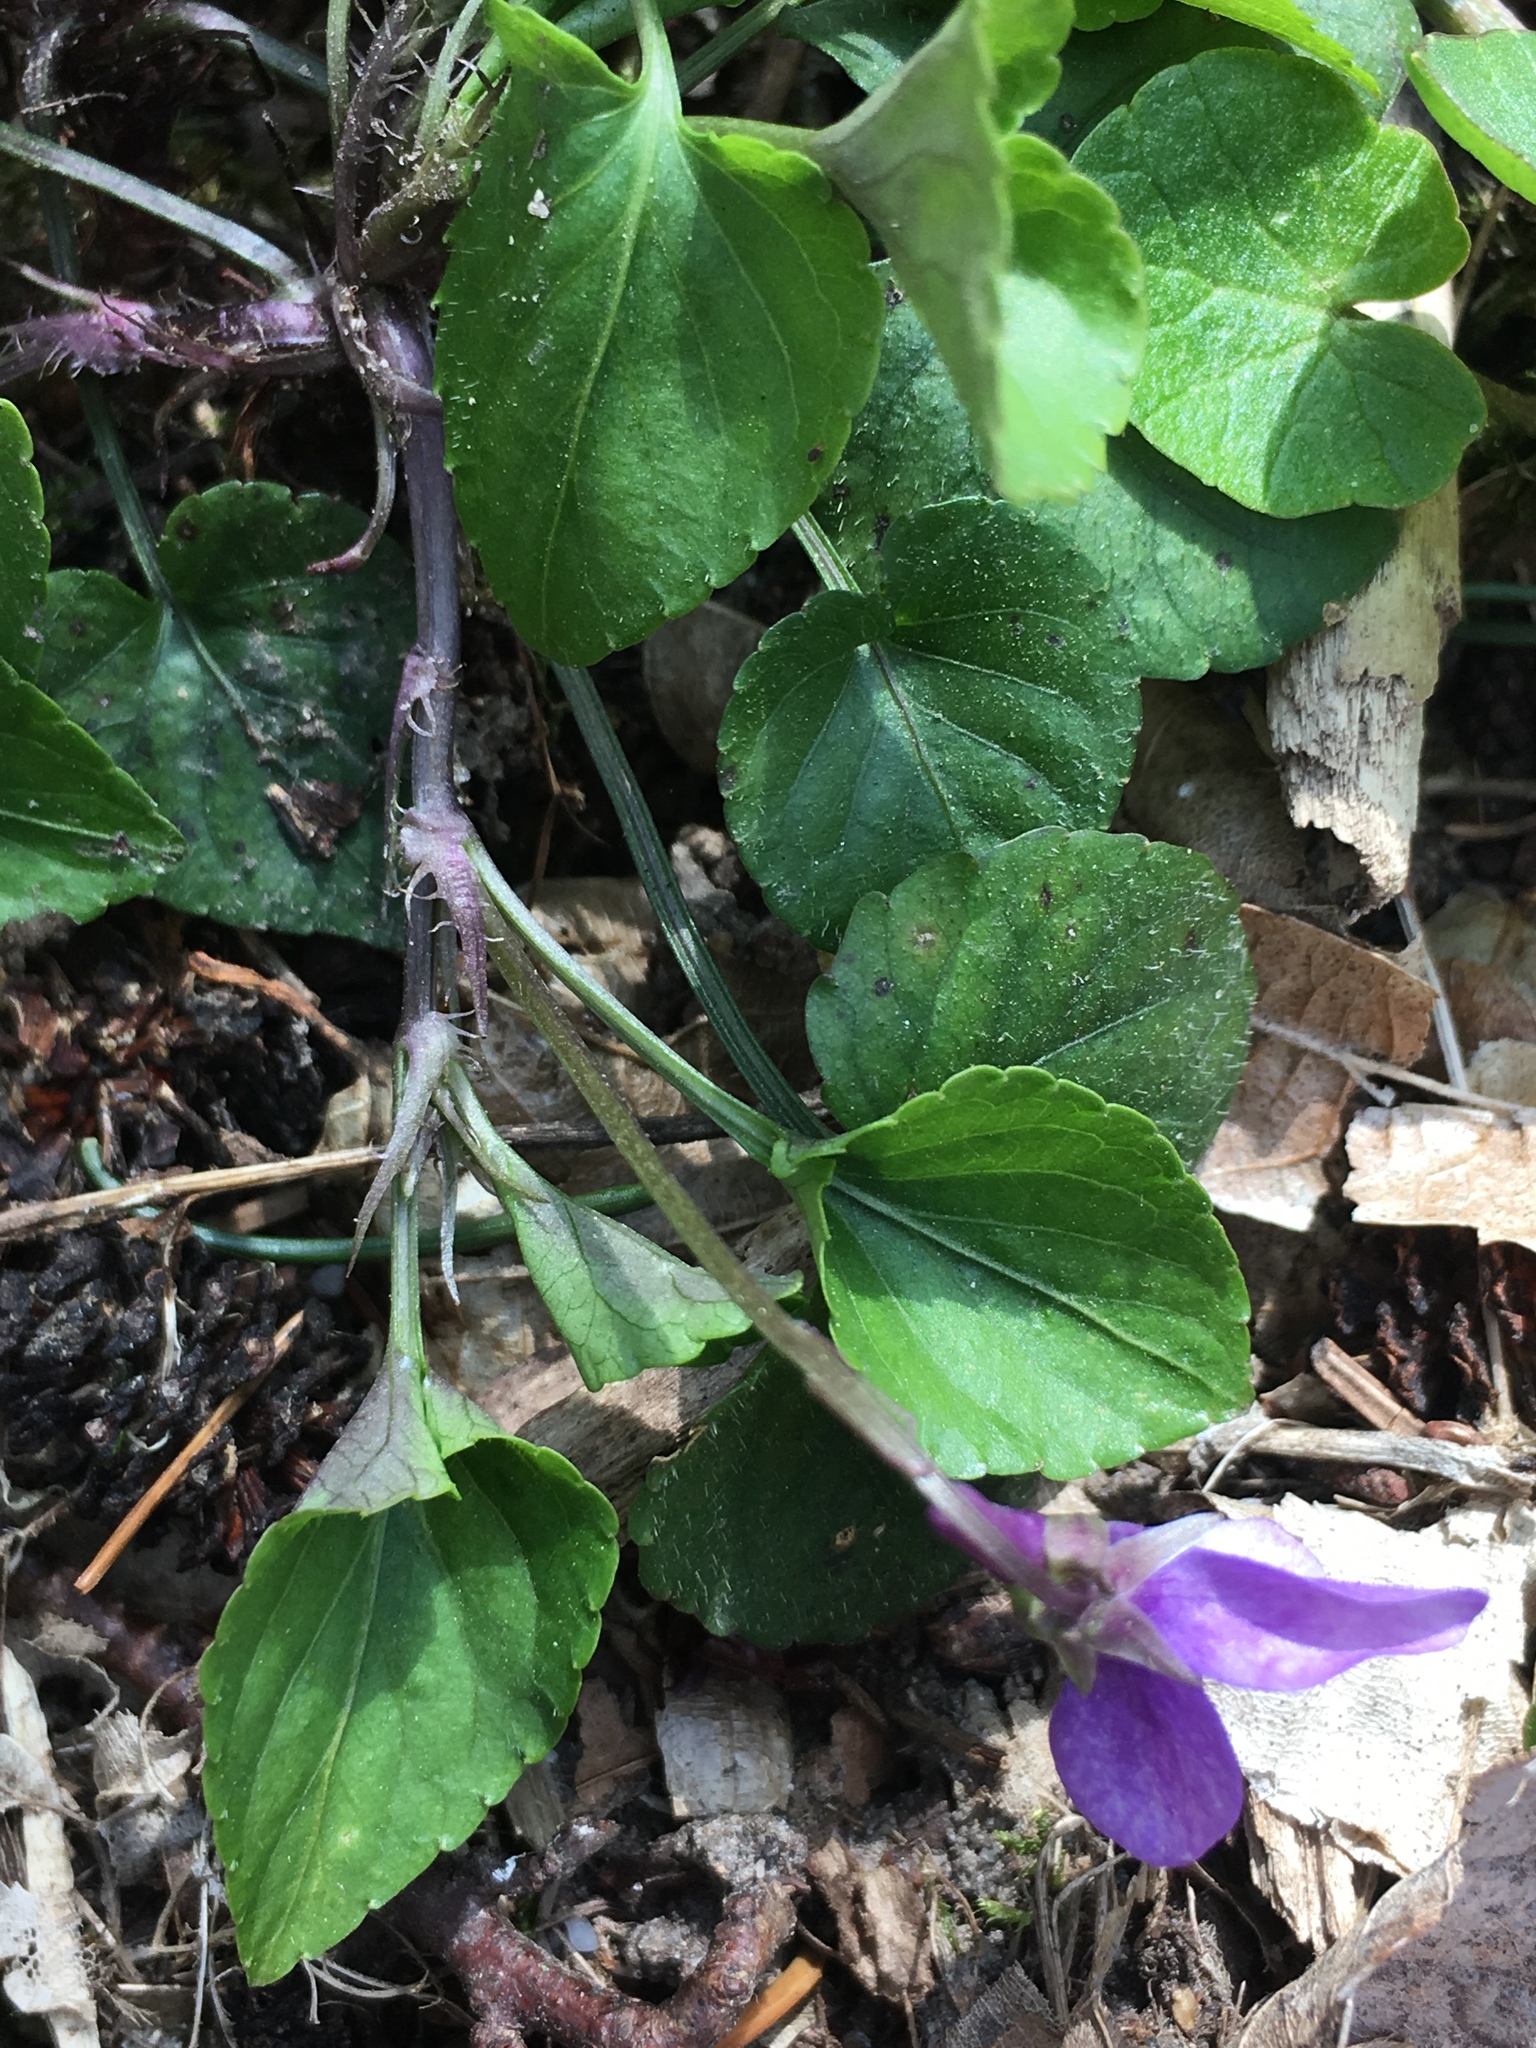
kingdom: Plantae
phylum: Tracheophyta
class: Magnoliopsida
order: Malpighiales
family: Violaceae
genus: Viola
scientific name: Viola reichenbachiana
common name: Early dog-violet
